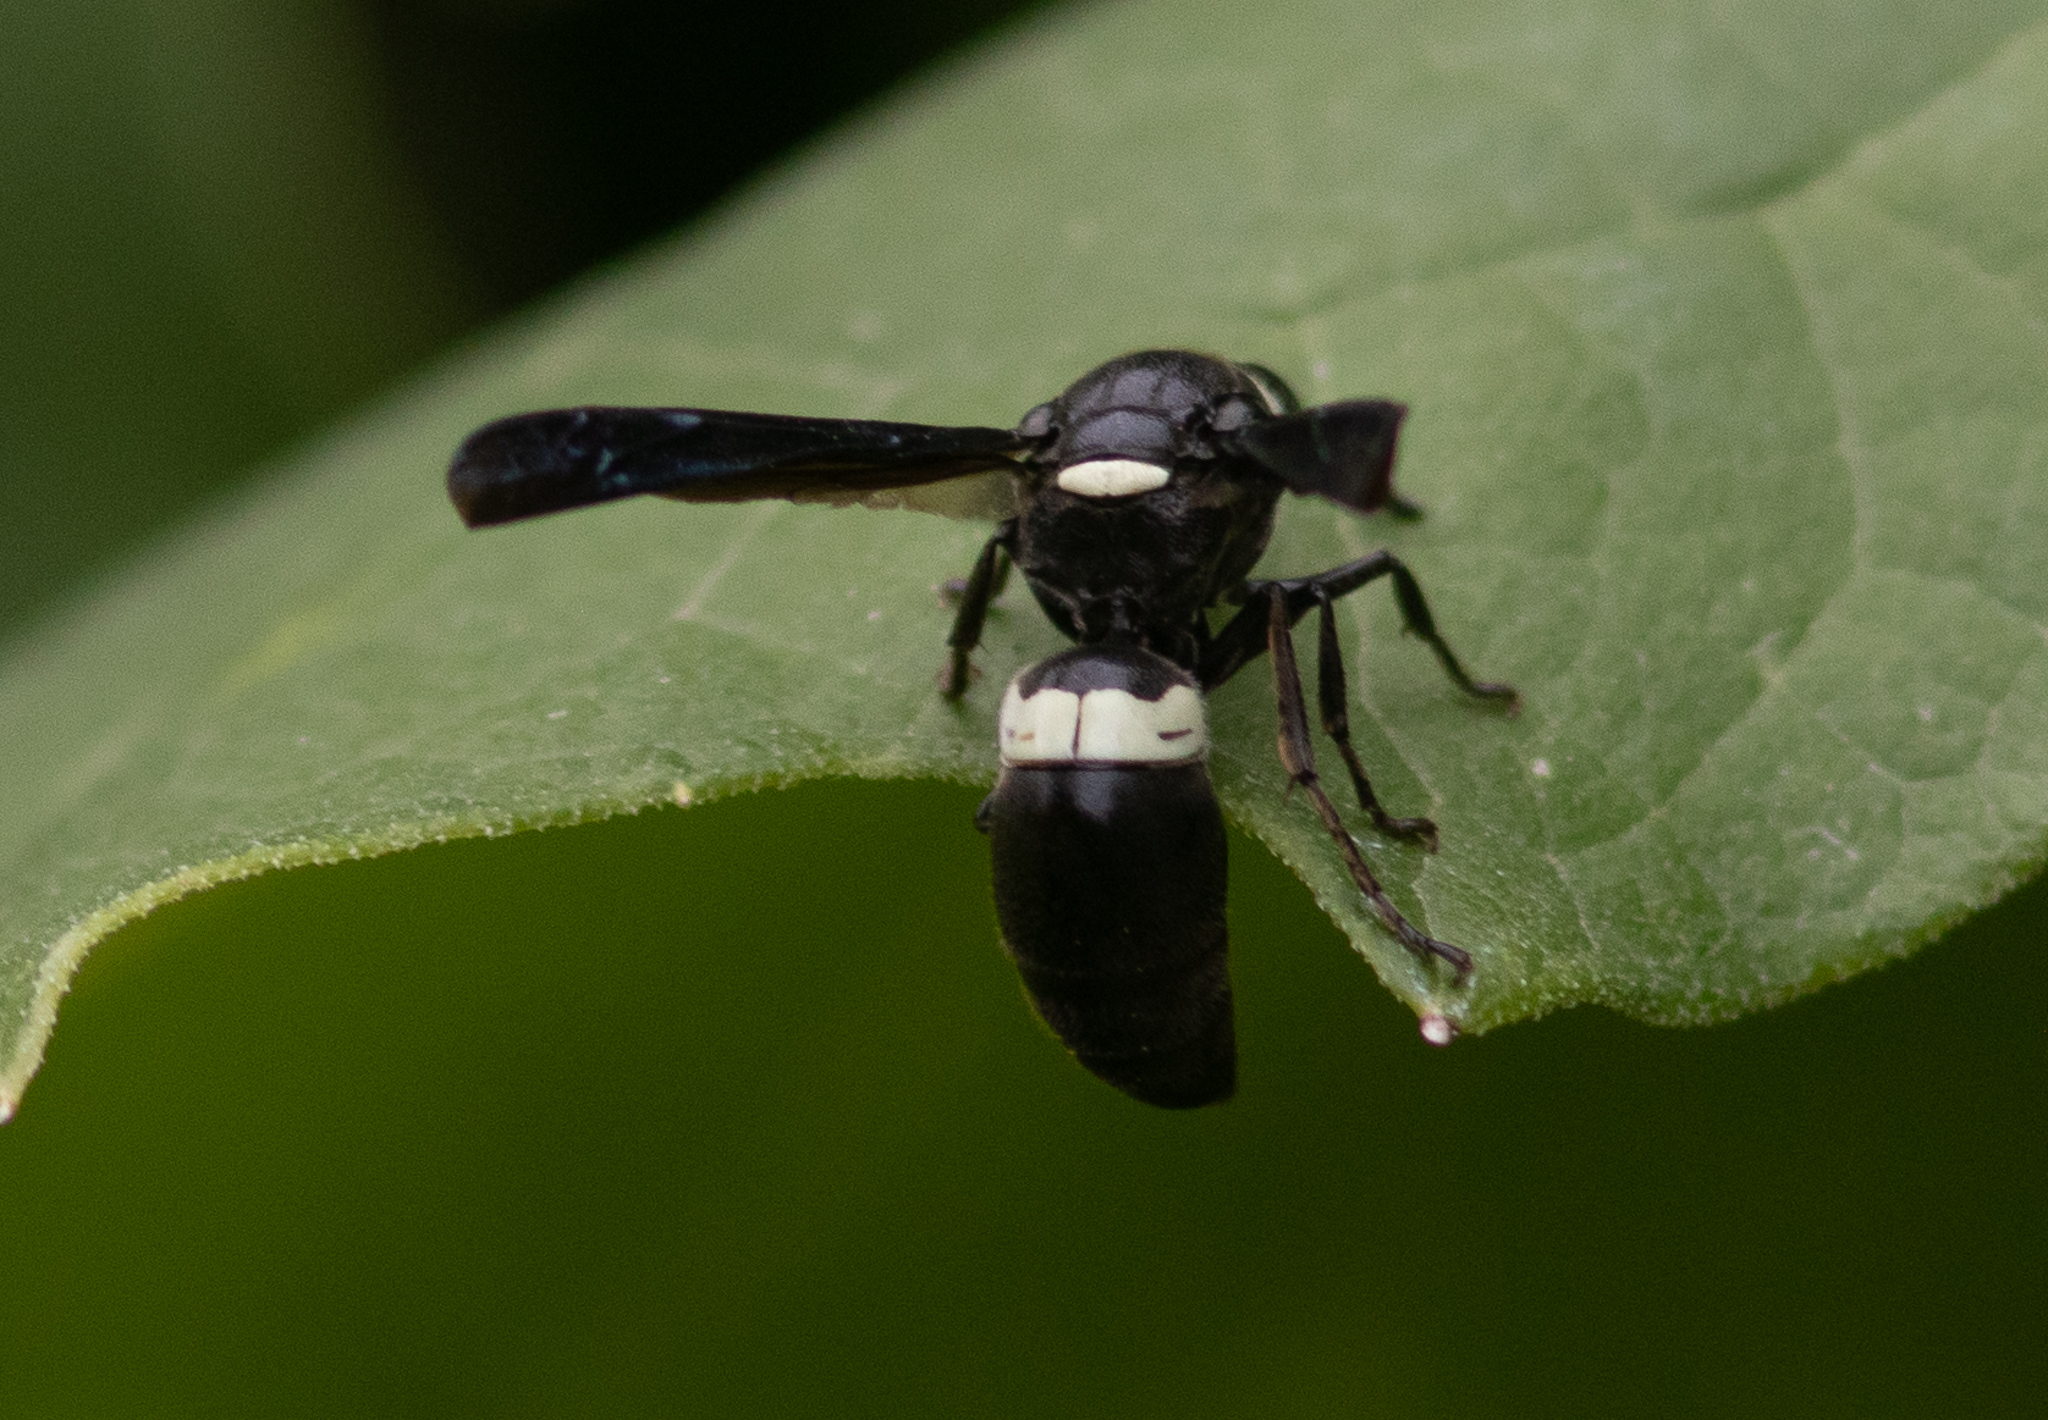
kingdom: Animalia
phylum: Arthropoda
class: Insecta
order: Hymenoptera
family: Eumenidae
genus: Monobia
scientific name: Monobia quadridens
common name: Four-toothed mason wasp
